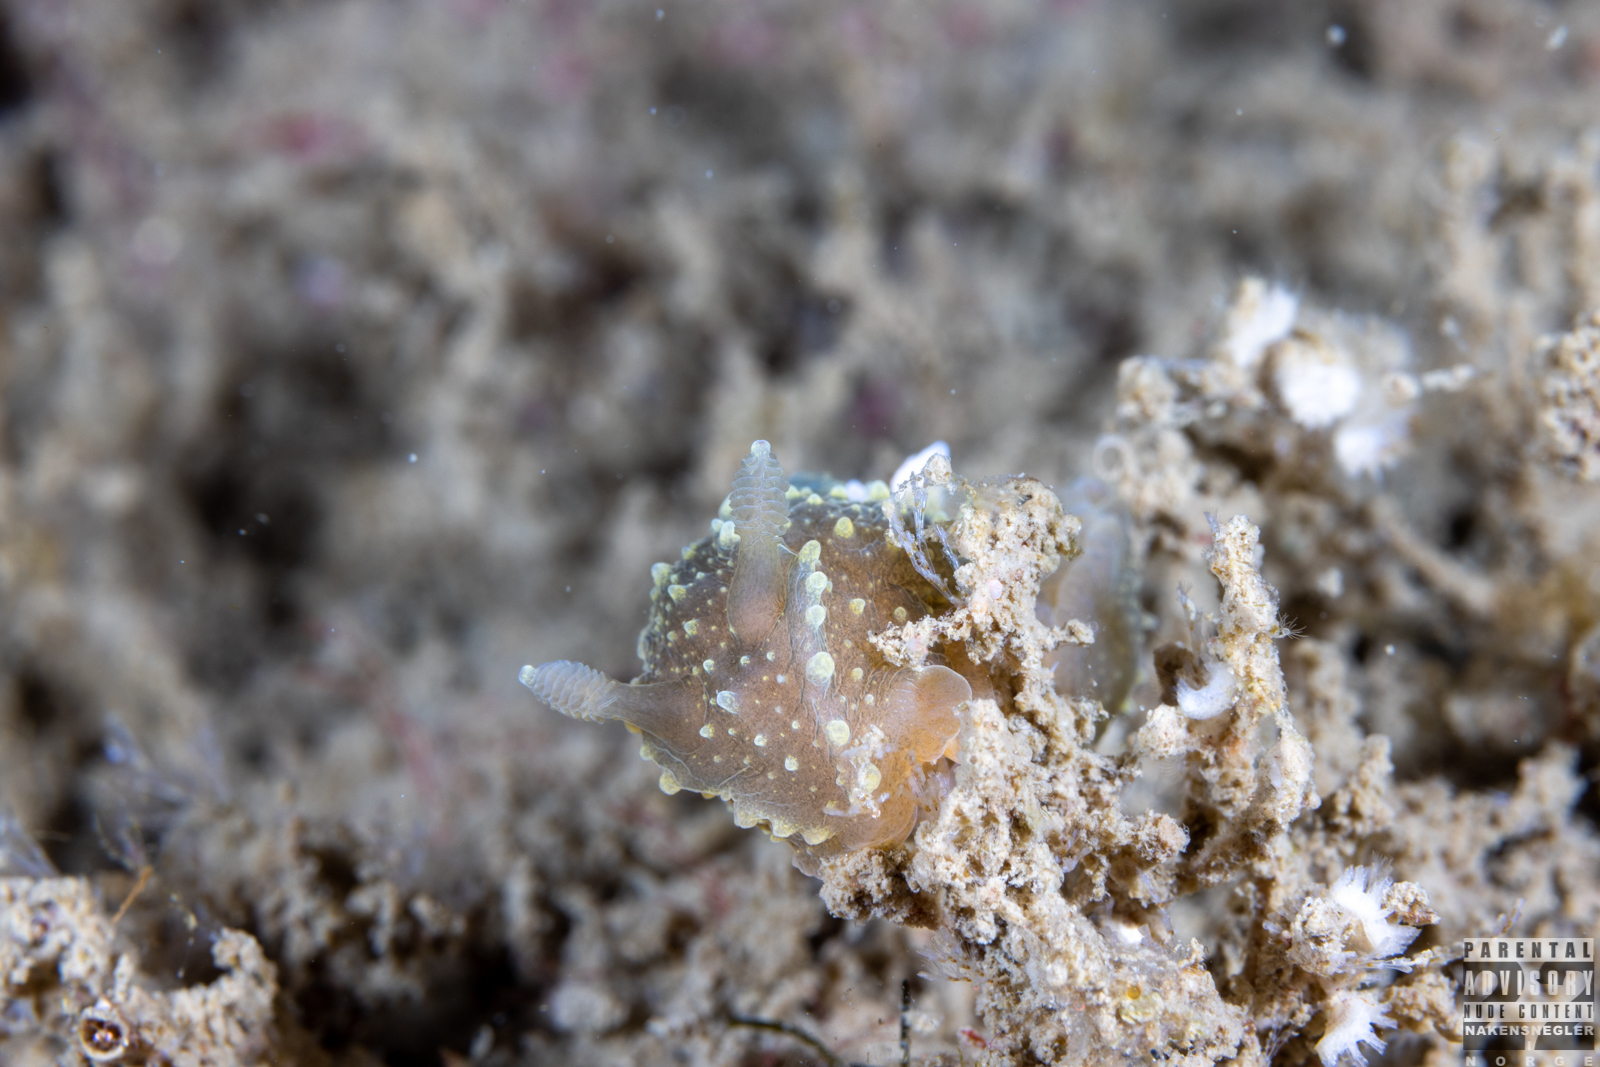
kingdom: Animalia
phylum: Mollusca
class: Gastropoda
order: Nudibranchia
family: Polyceridae
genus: Palio
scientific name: Palio dubia
